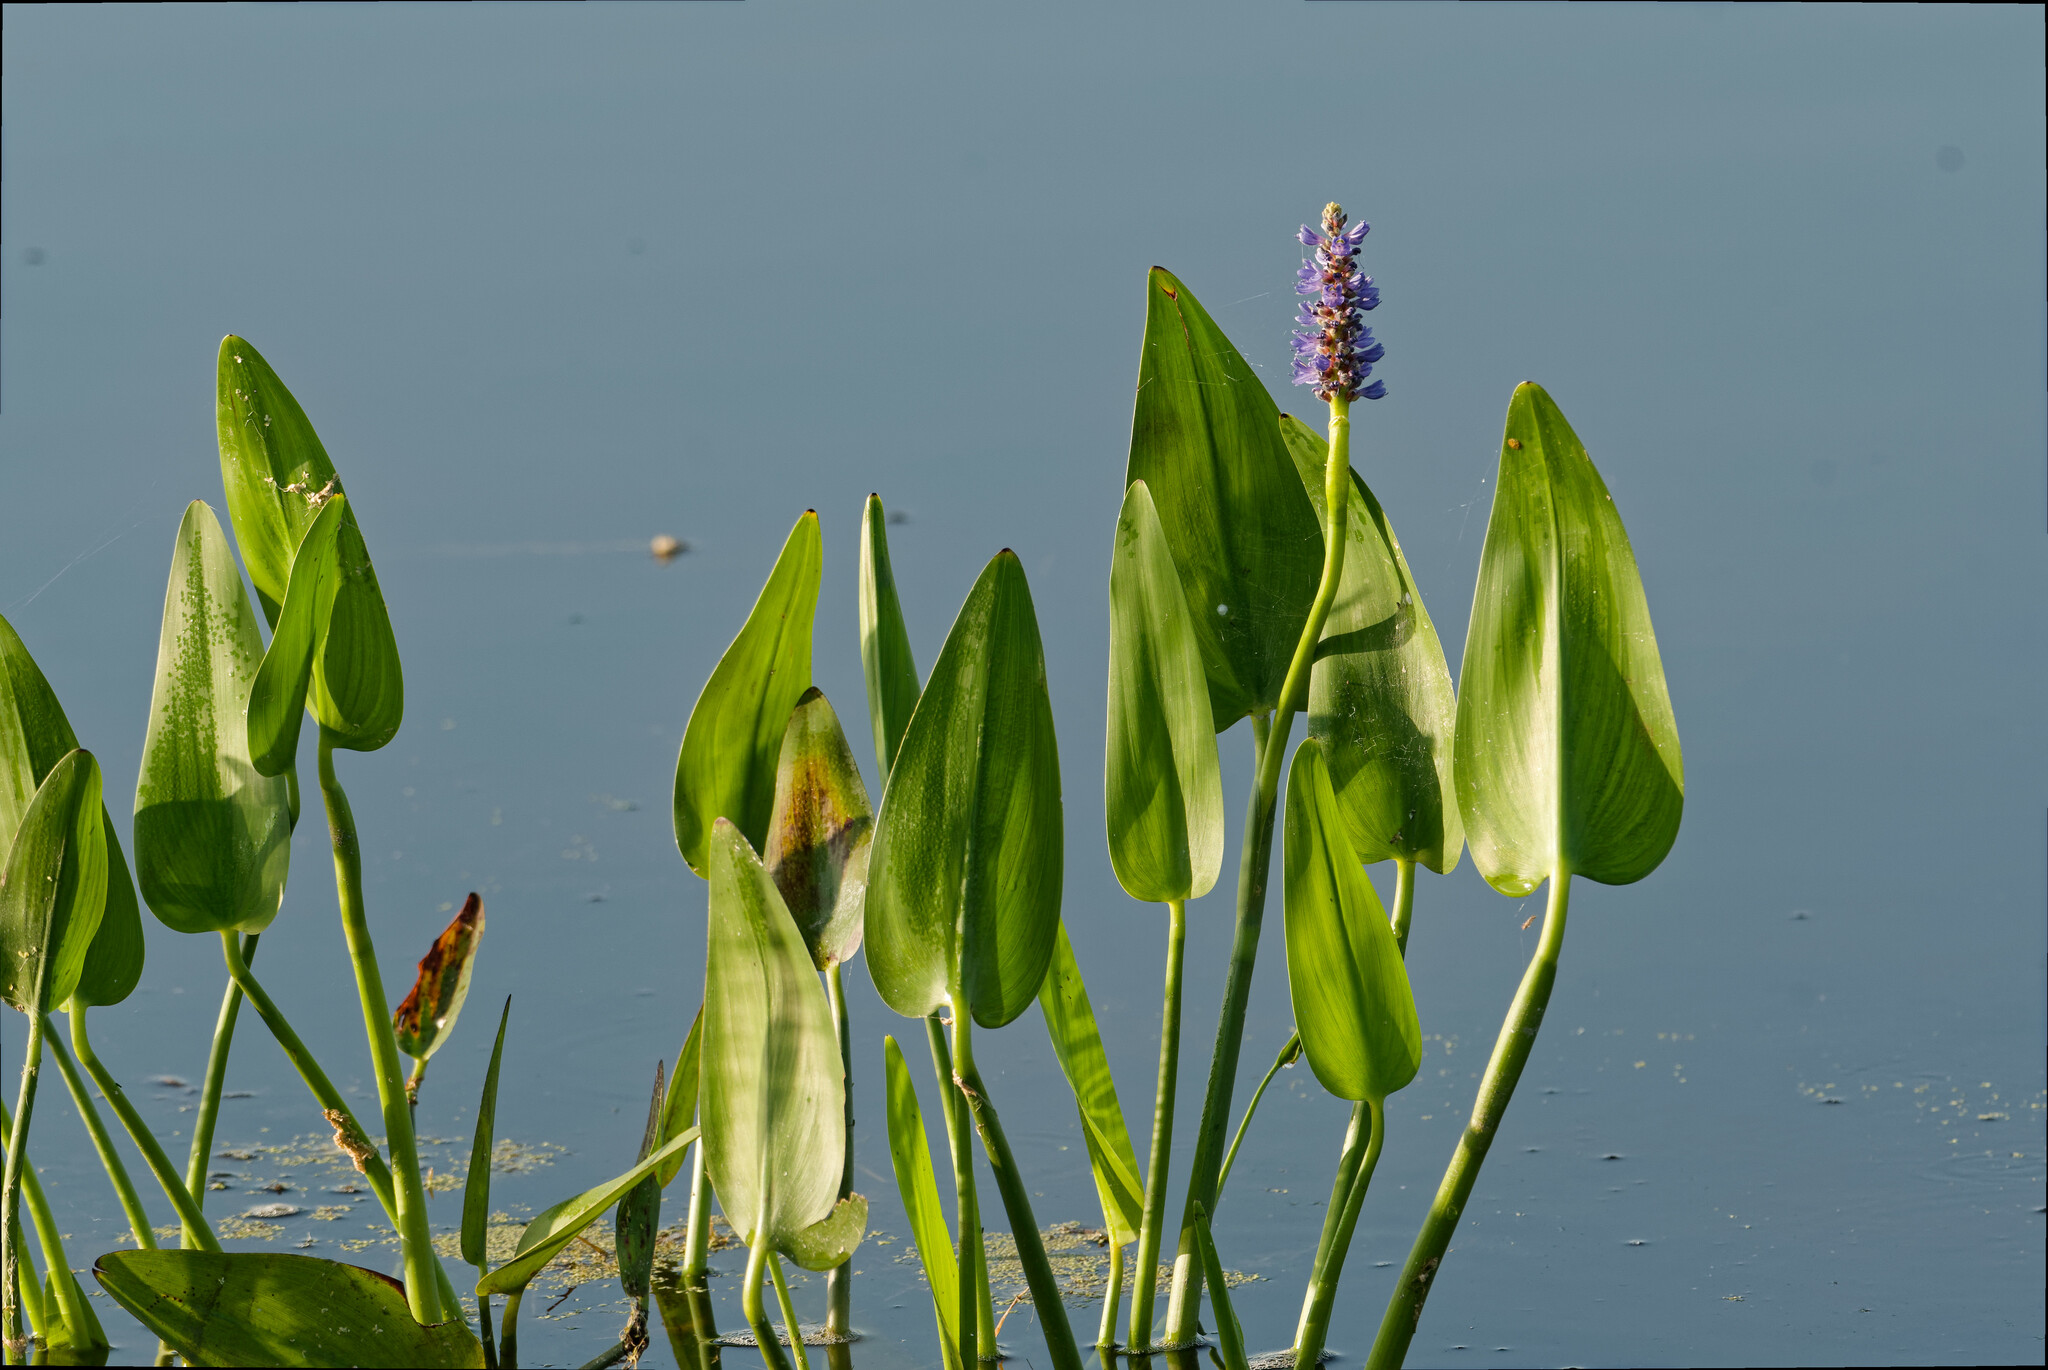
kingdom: Plantae
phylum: Tracheophyta
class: Liliopsida
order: Commelinales
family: Pontederiaceae
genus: Pontederia
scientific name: Pontederia cordata
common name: Pickerelweed
